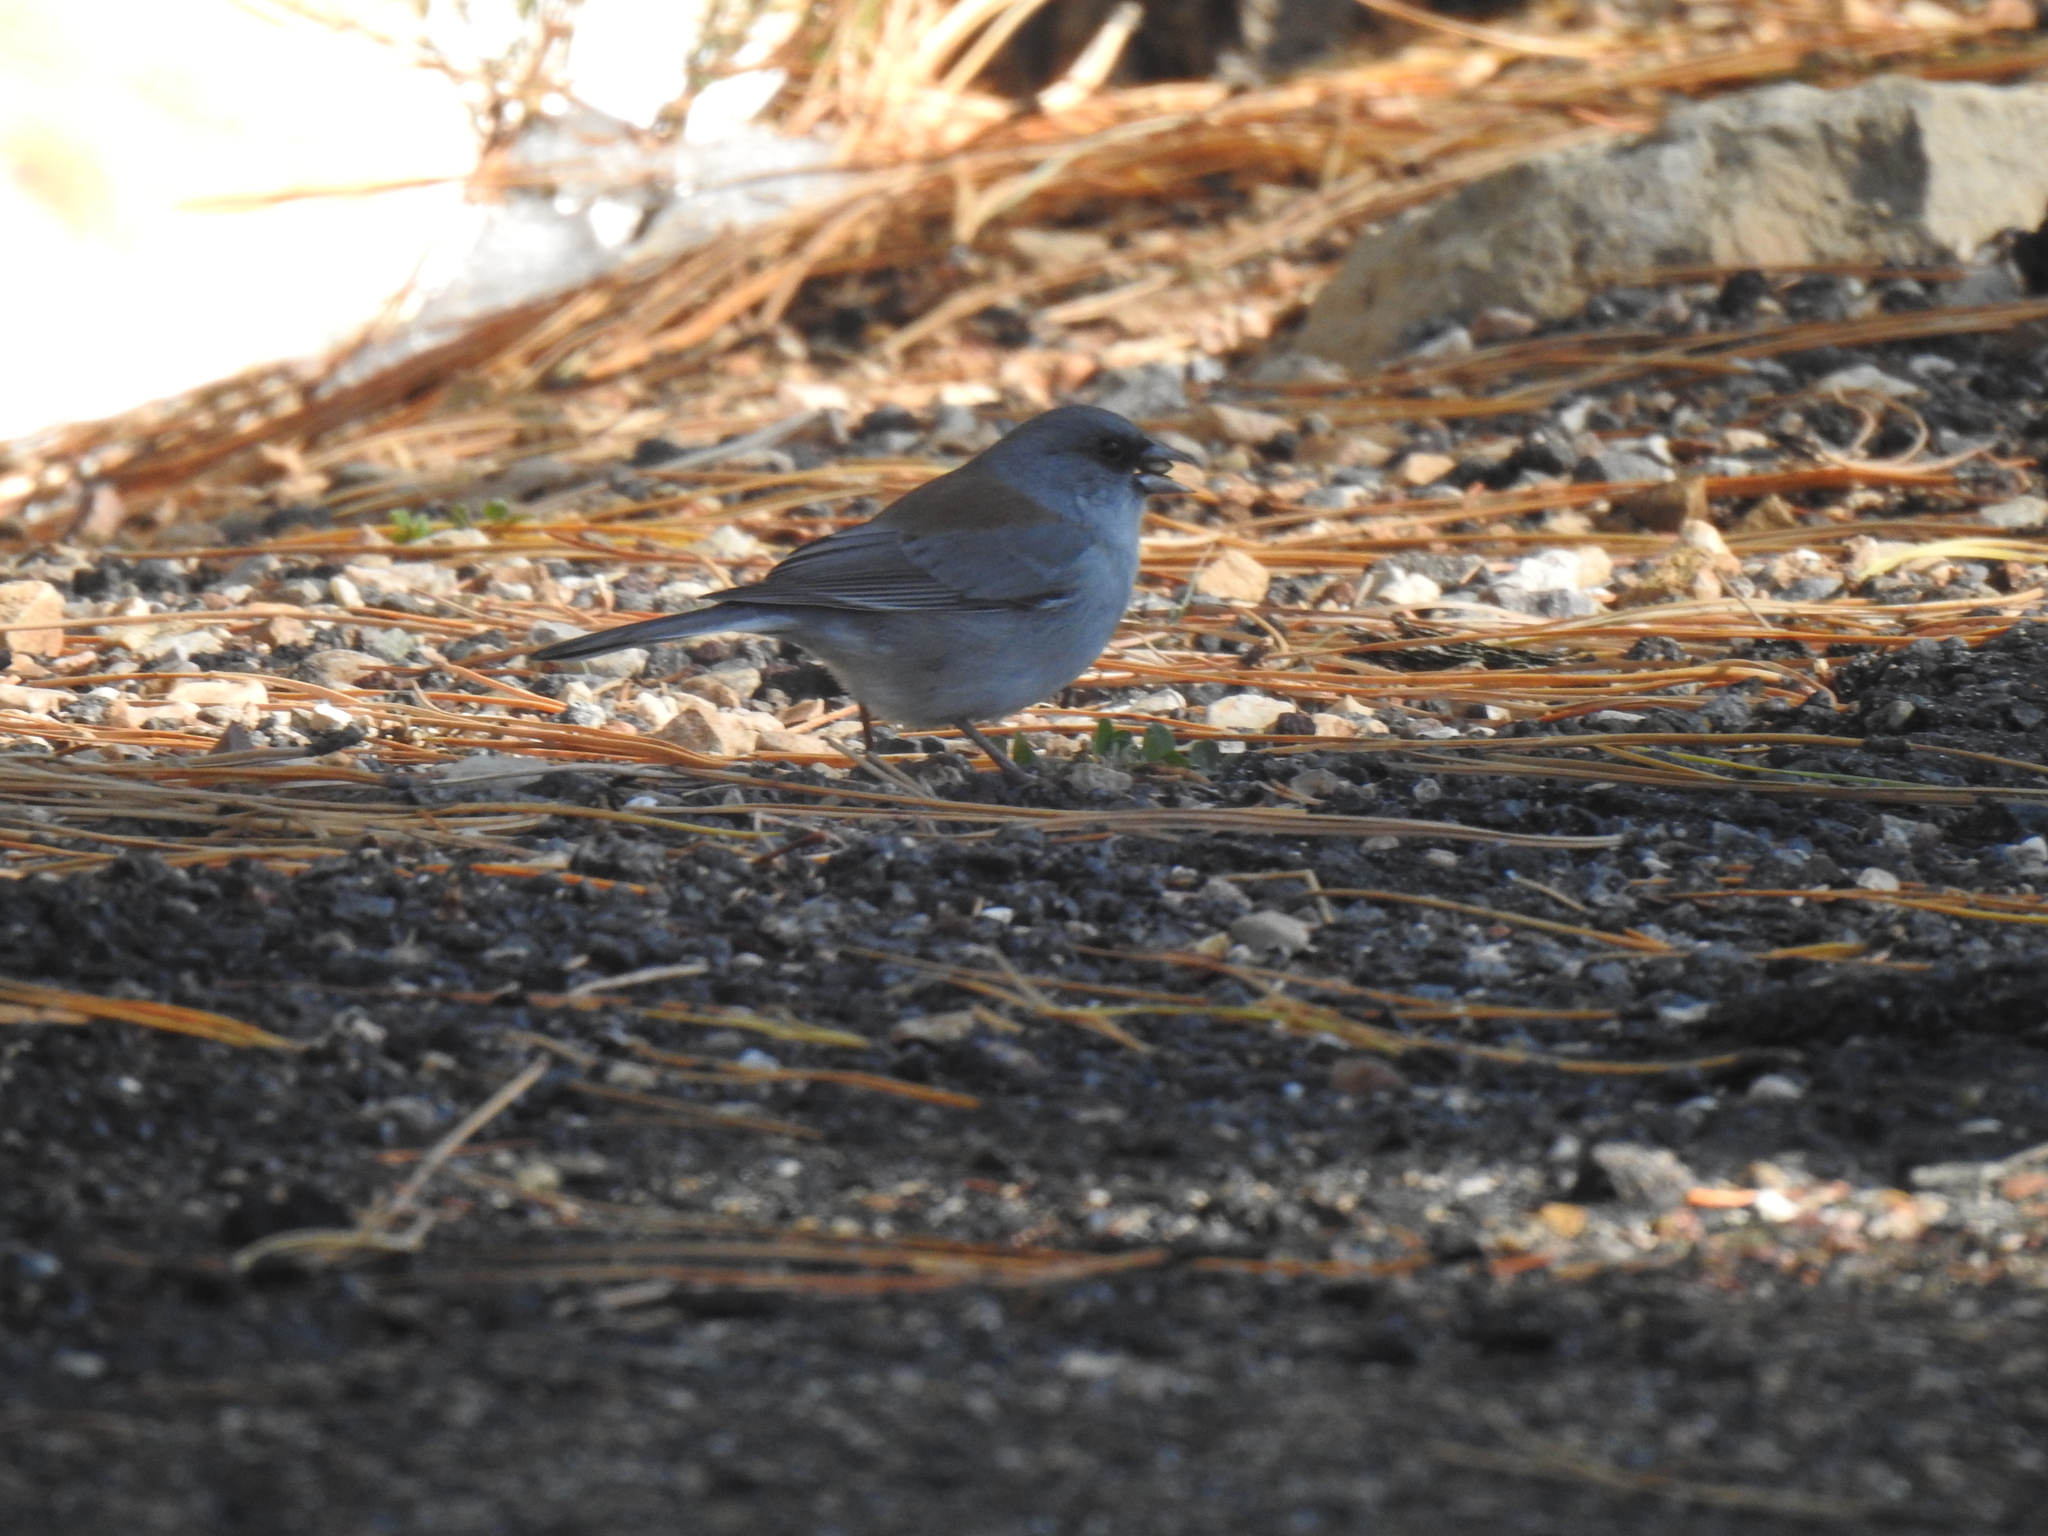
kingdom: Animalia
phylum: Chordata
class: Aves
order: Passeriformes
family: Passerellidae
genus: Junco
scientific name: Junco hyemalis
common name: Dark-eyed junco
